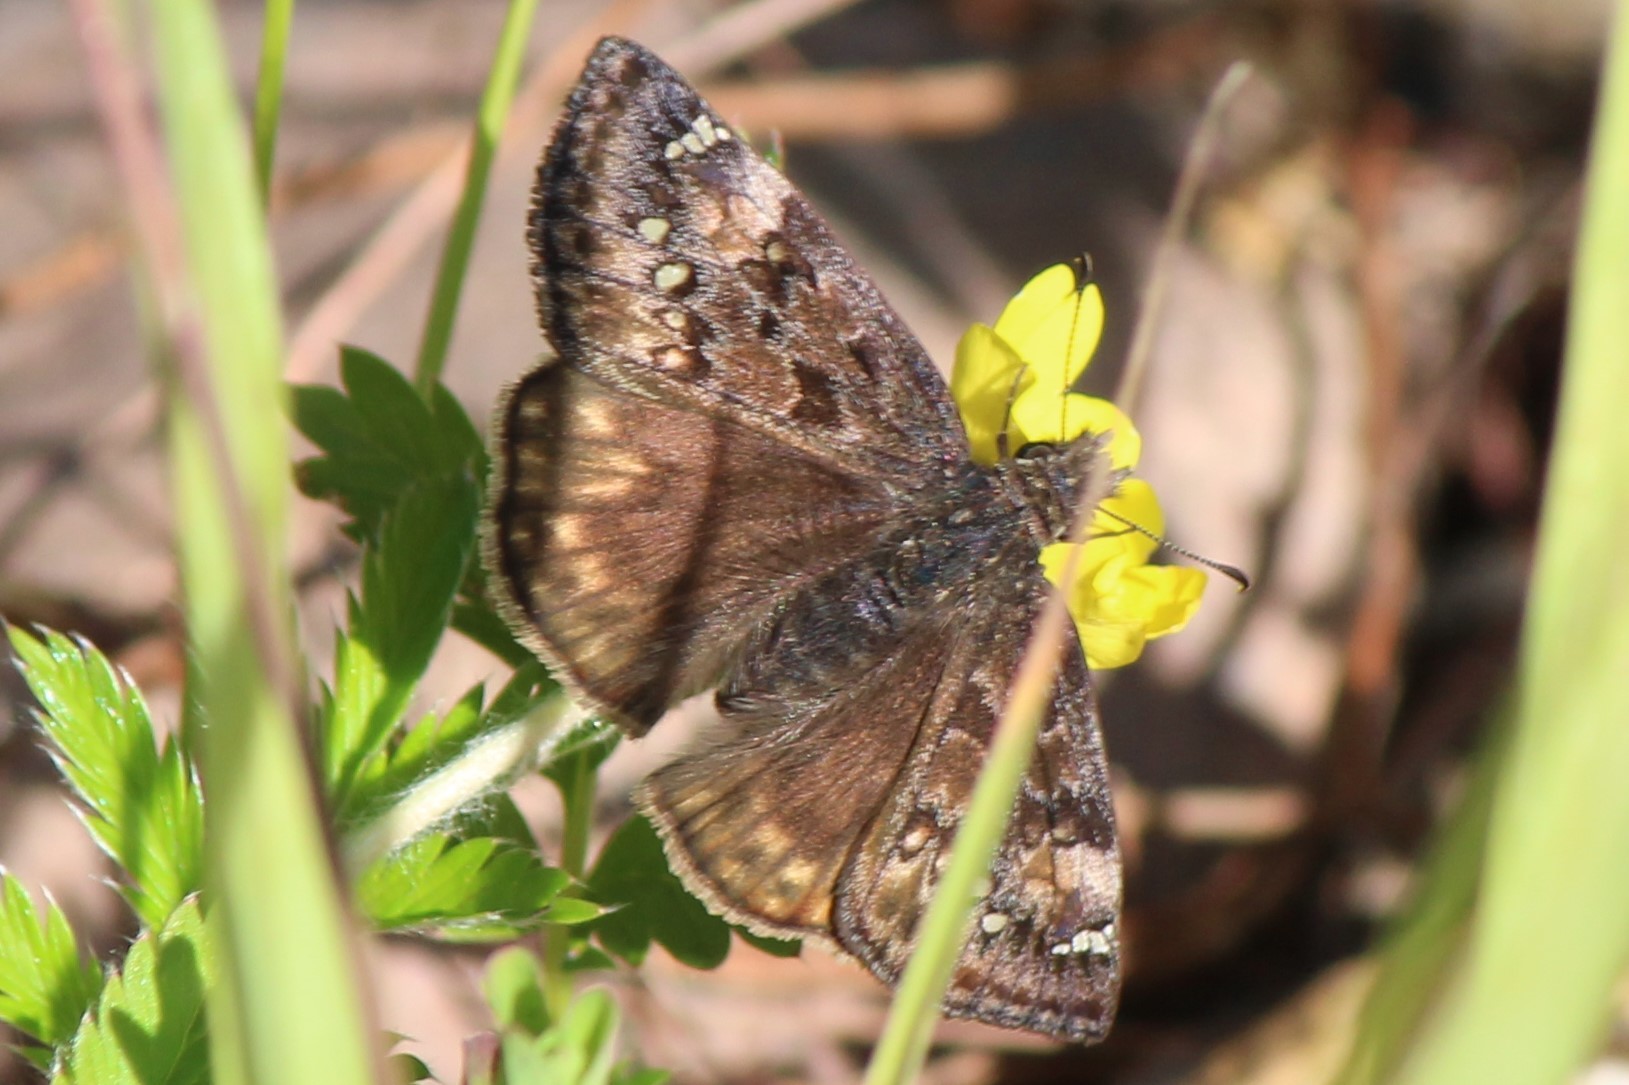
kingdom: Animalia
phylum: Arthropoda
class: Insecta
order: Lepidoptera
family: Hesperiidae
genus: Erynnis
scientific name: Erynnis juvenalis
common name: Juvenal's duskywing
